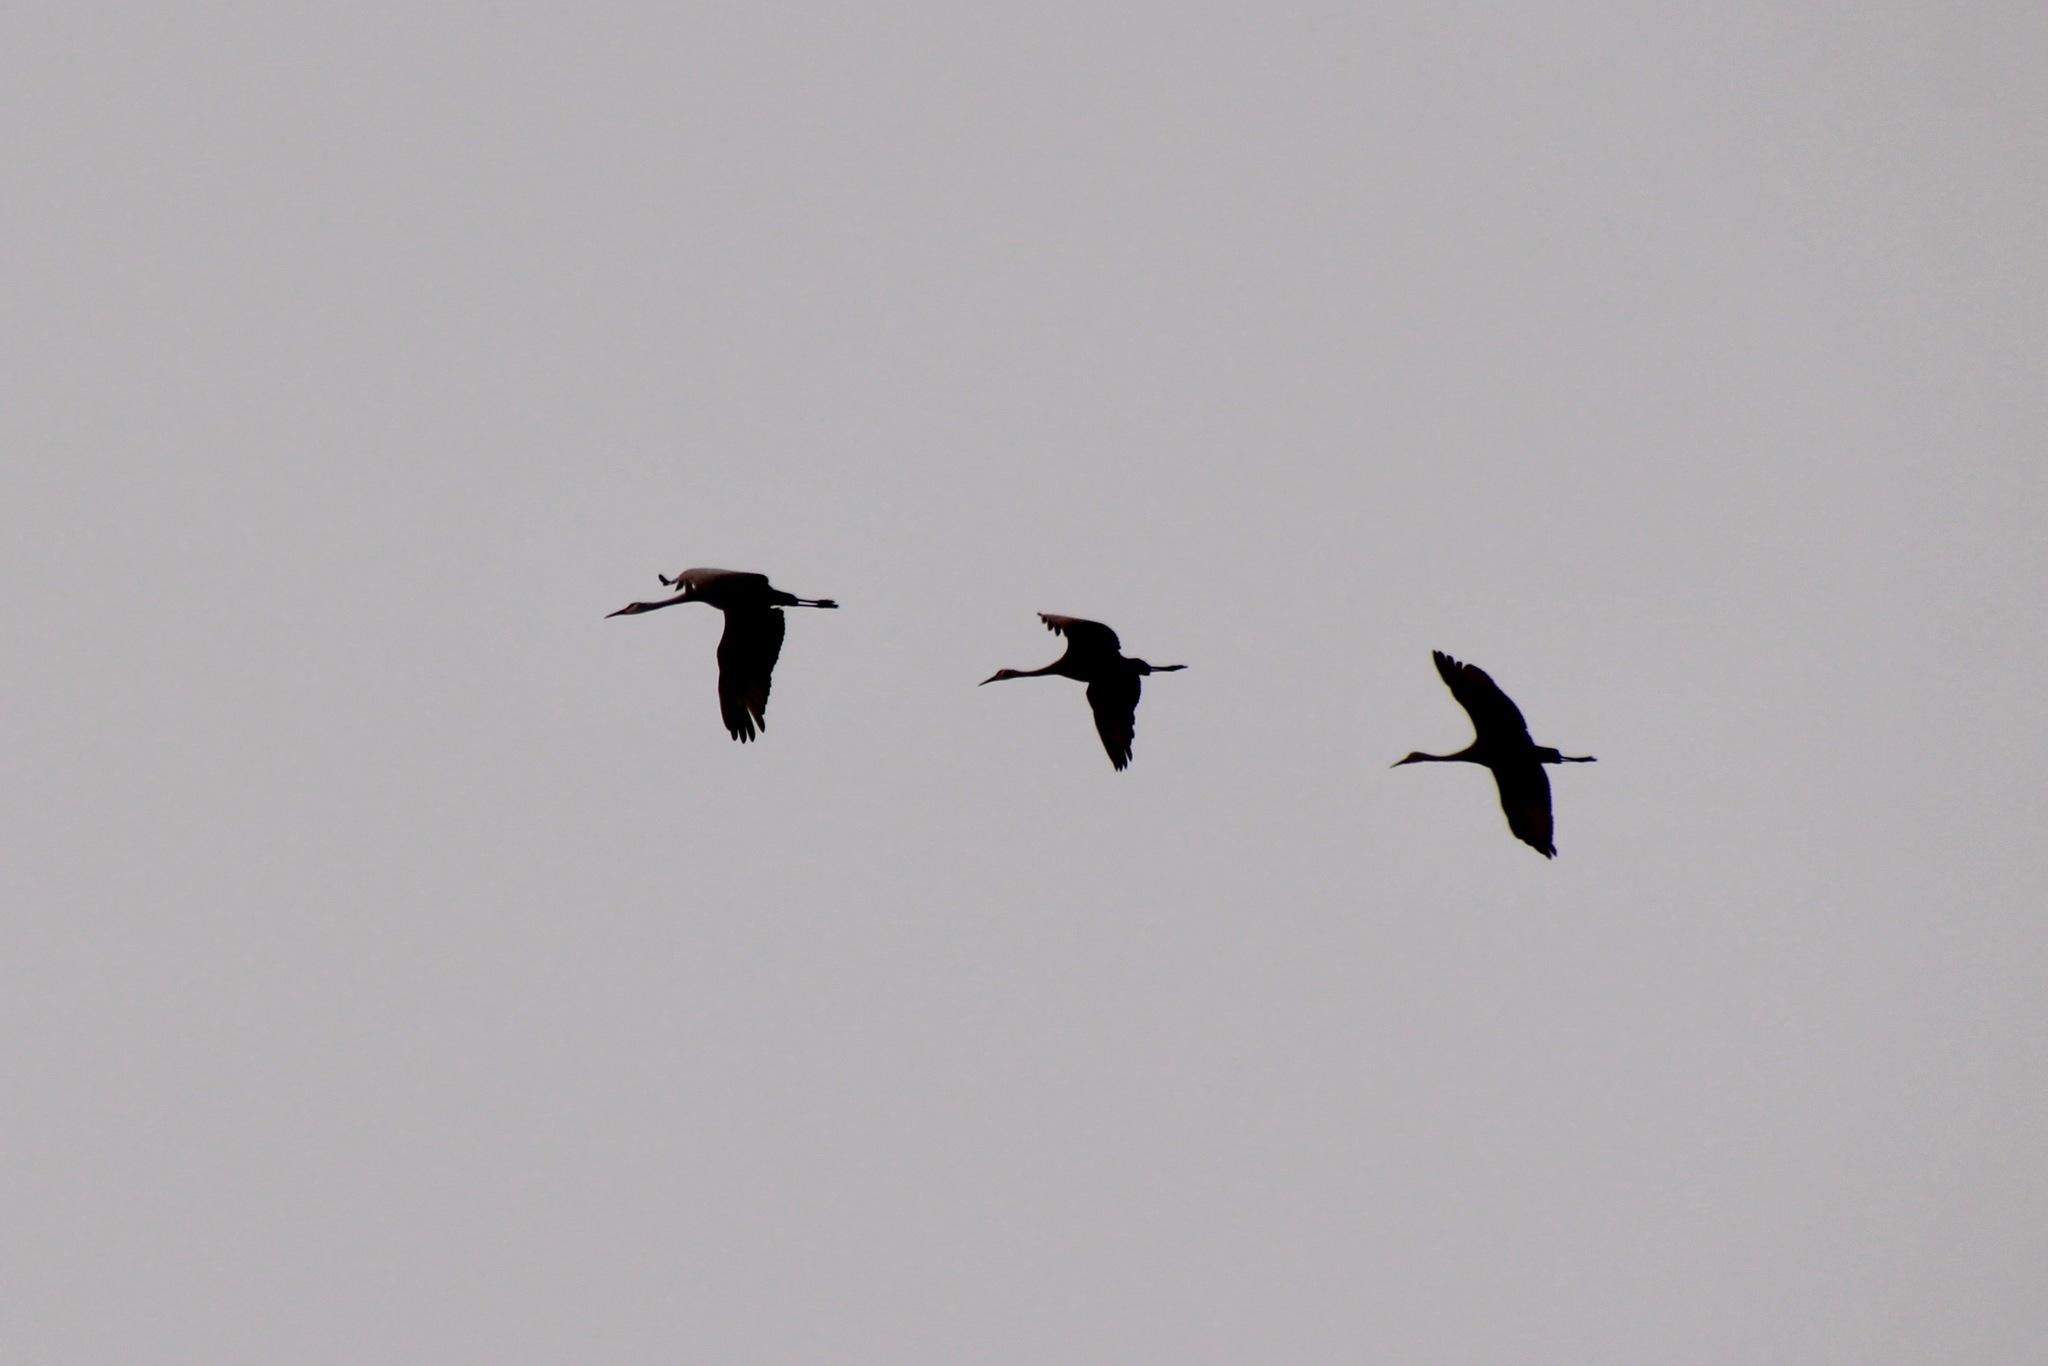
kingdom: Animalia
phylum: Chordata
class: Aves
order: Gruiformes
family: Gruidae
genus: Grus
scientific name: Grus canadensis
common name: Sandhill crane
